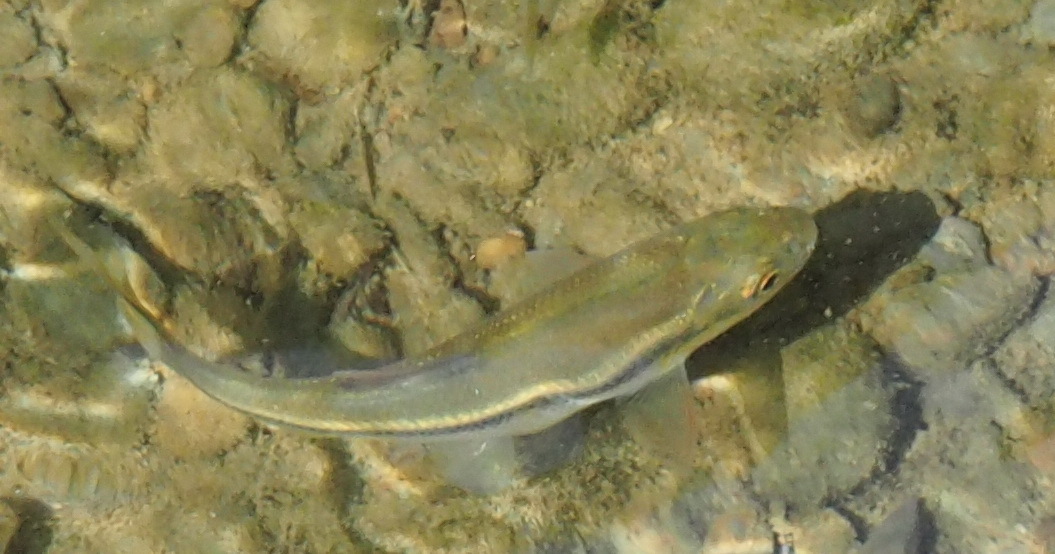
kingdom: Animalia
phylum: Chordata
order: Cypriniformes
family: Cyprinidae
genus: Candidia
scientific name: Candidia barbata
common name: Lake candidus dace
